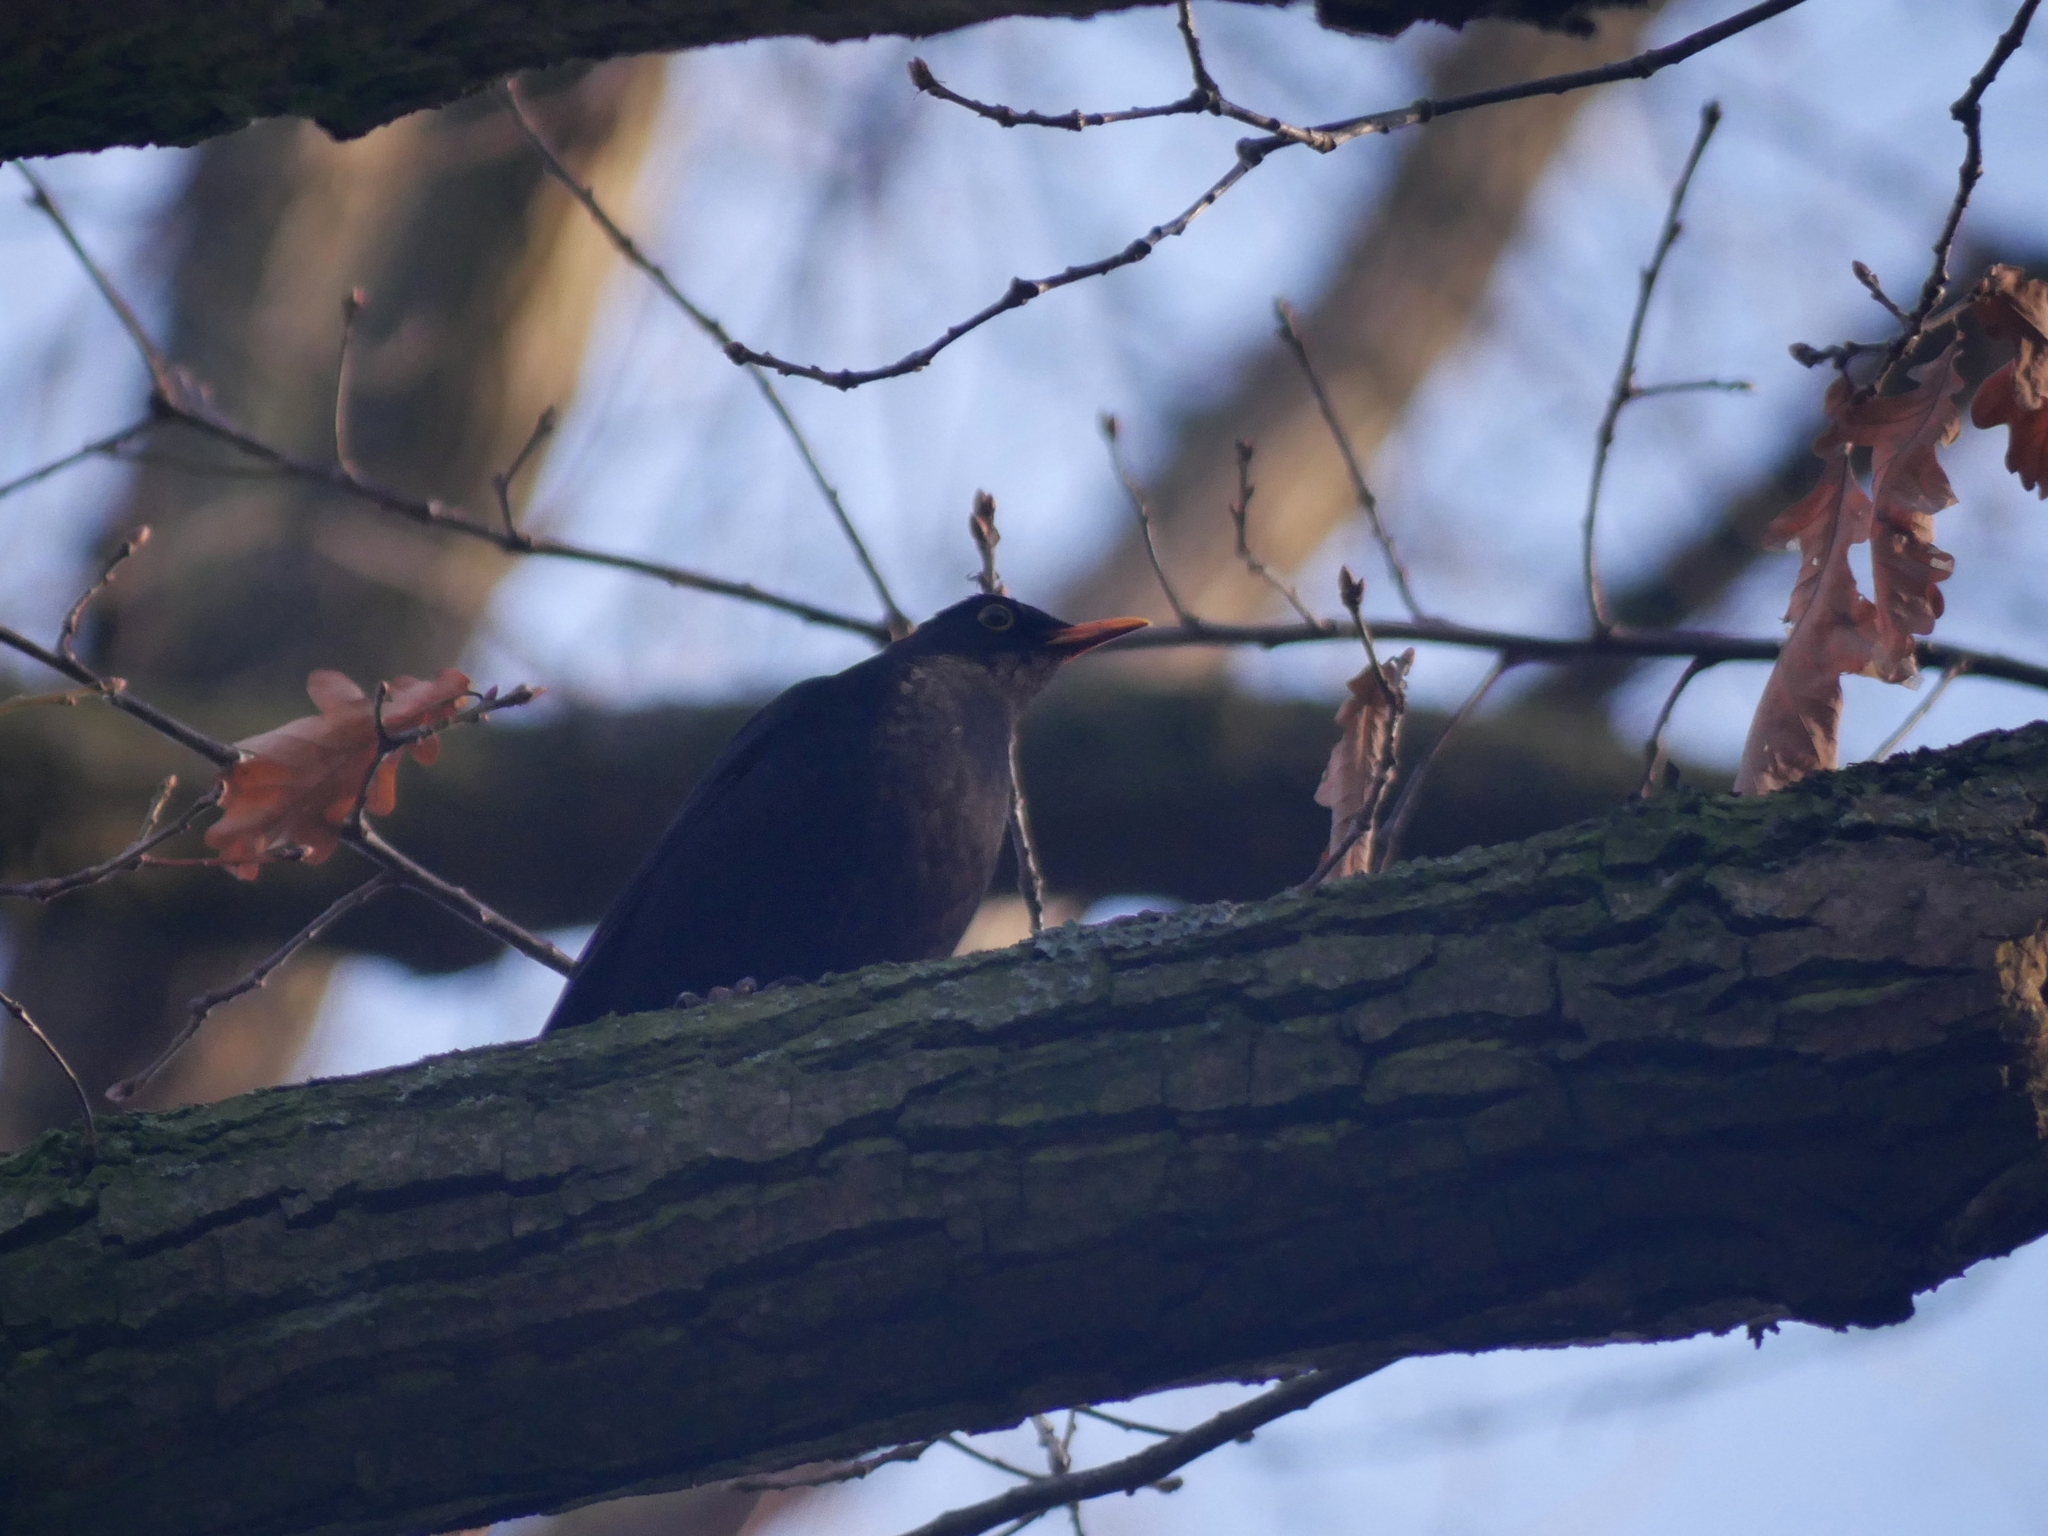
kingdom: Animalia
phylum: Chordata
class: Aves
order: Passeriformes
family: Turdidae
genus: Turdus
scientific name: Turdus merula
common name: Common blackbird
